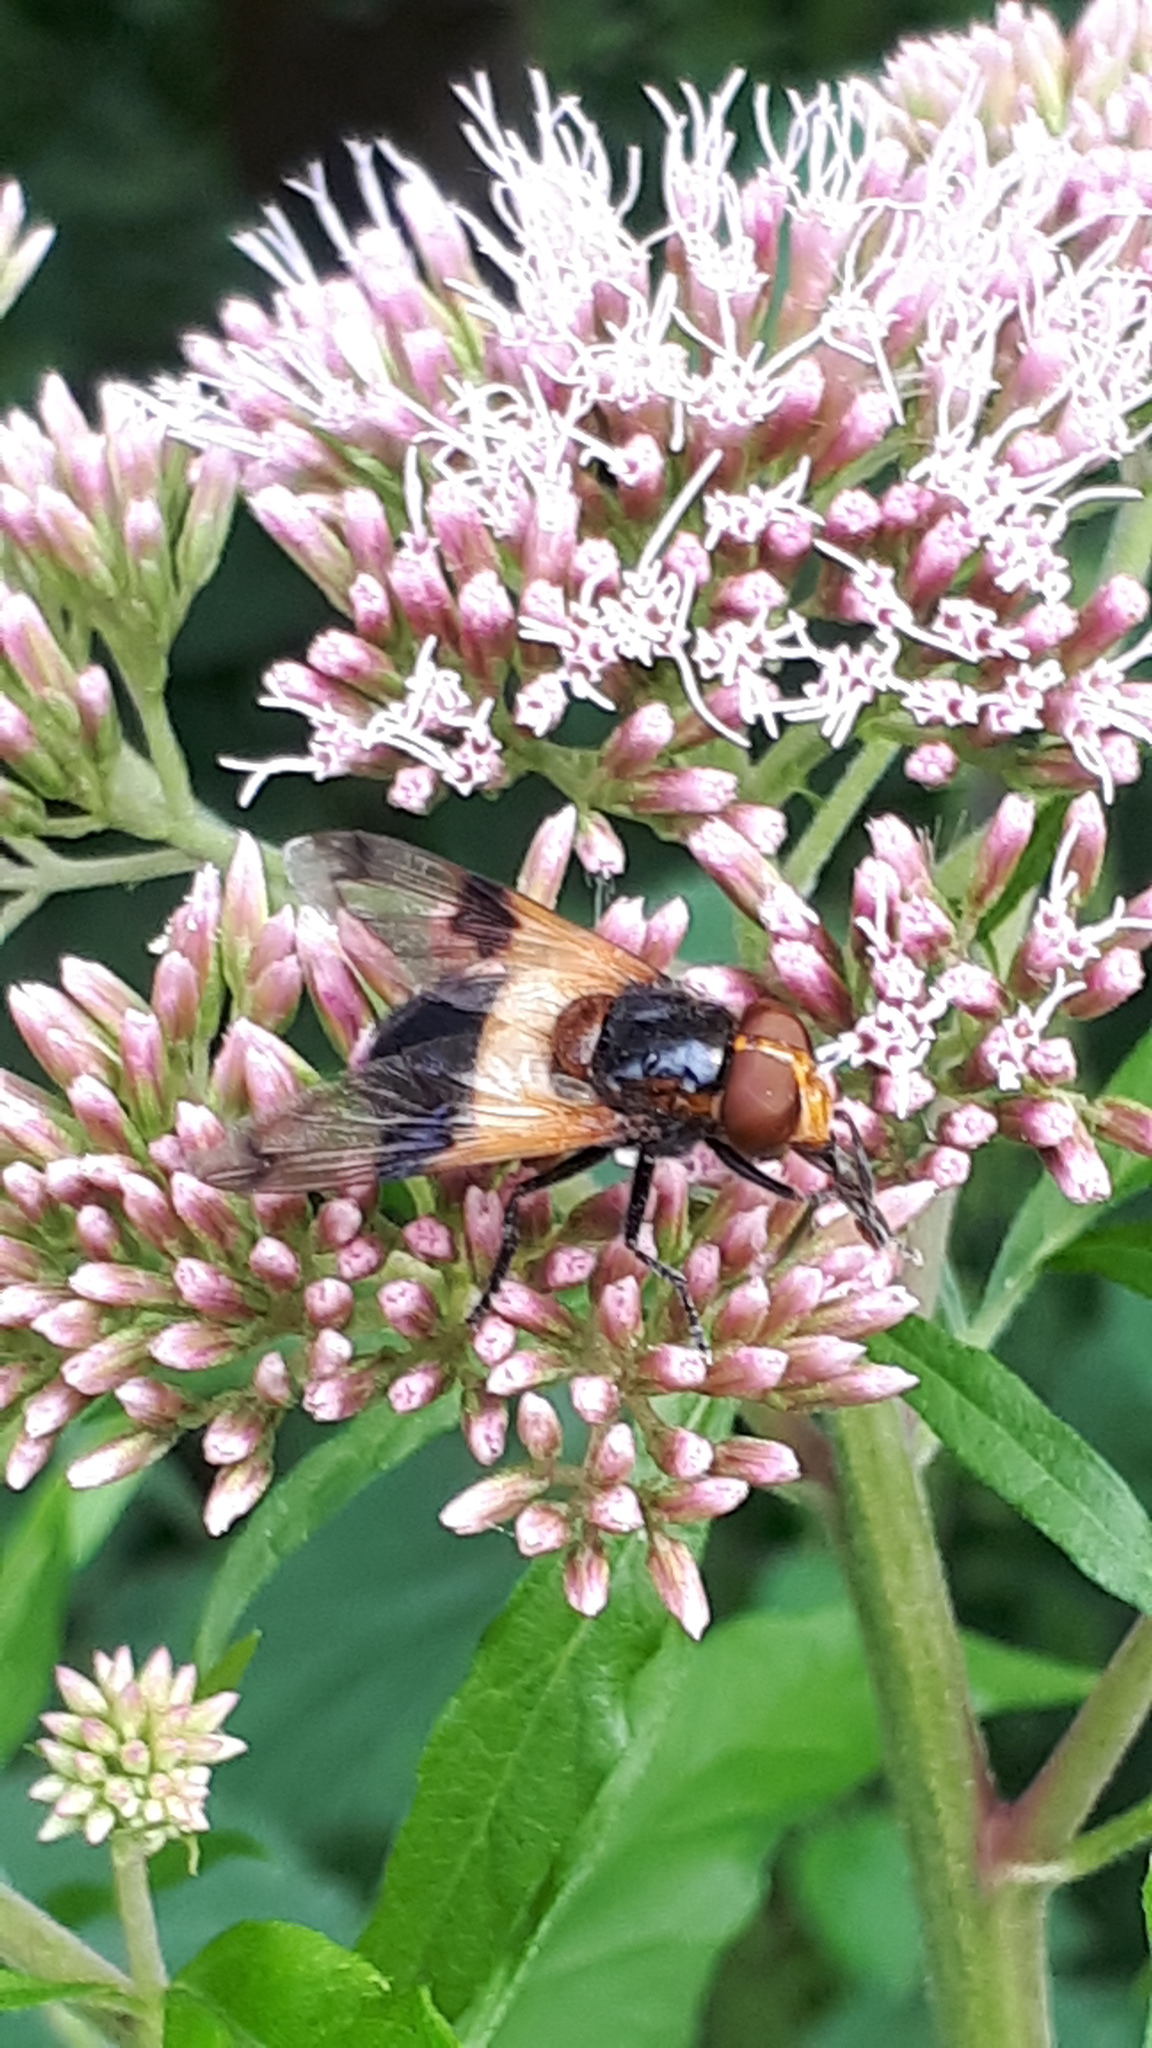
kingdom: Animalia
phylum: Arthropoda
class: Insecta
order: Diptera
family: Syrphidae
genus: Volucella
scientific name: Volucella pellucens
